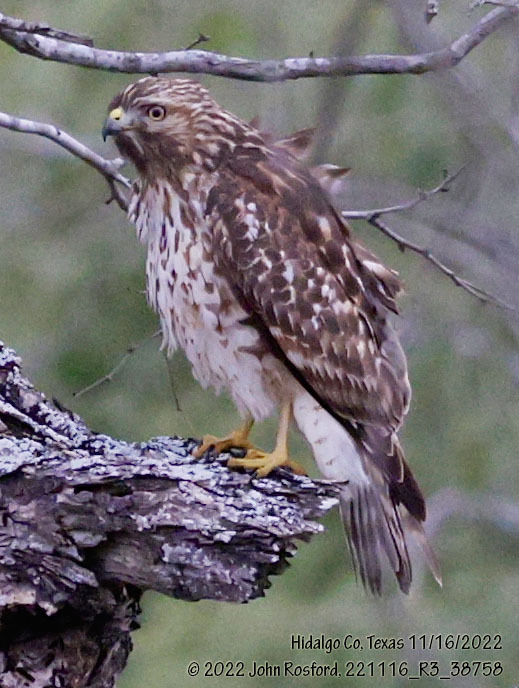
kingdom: Animalia
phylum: Chordata
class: Aves
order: Accipitriformes
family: Accipitridae
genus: Buteo
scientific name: Buteo lineatus
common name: Red-shouldered hawk
